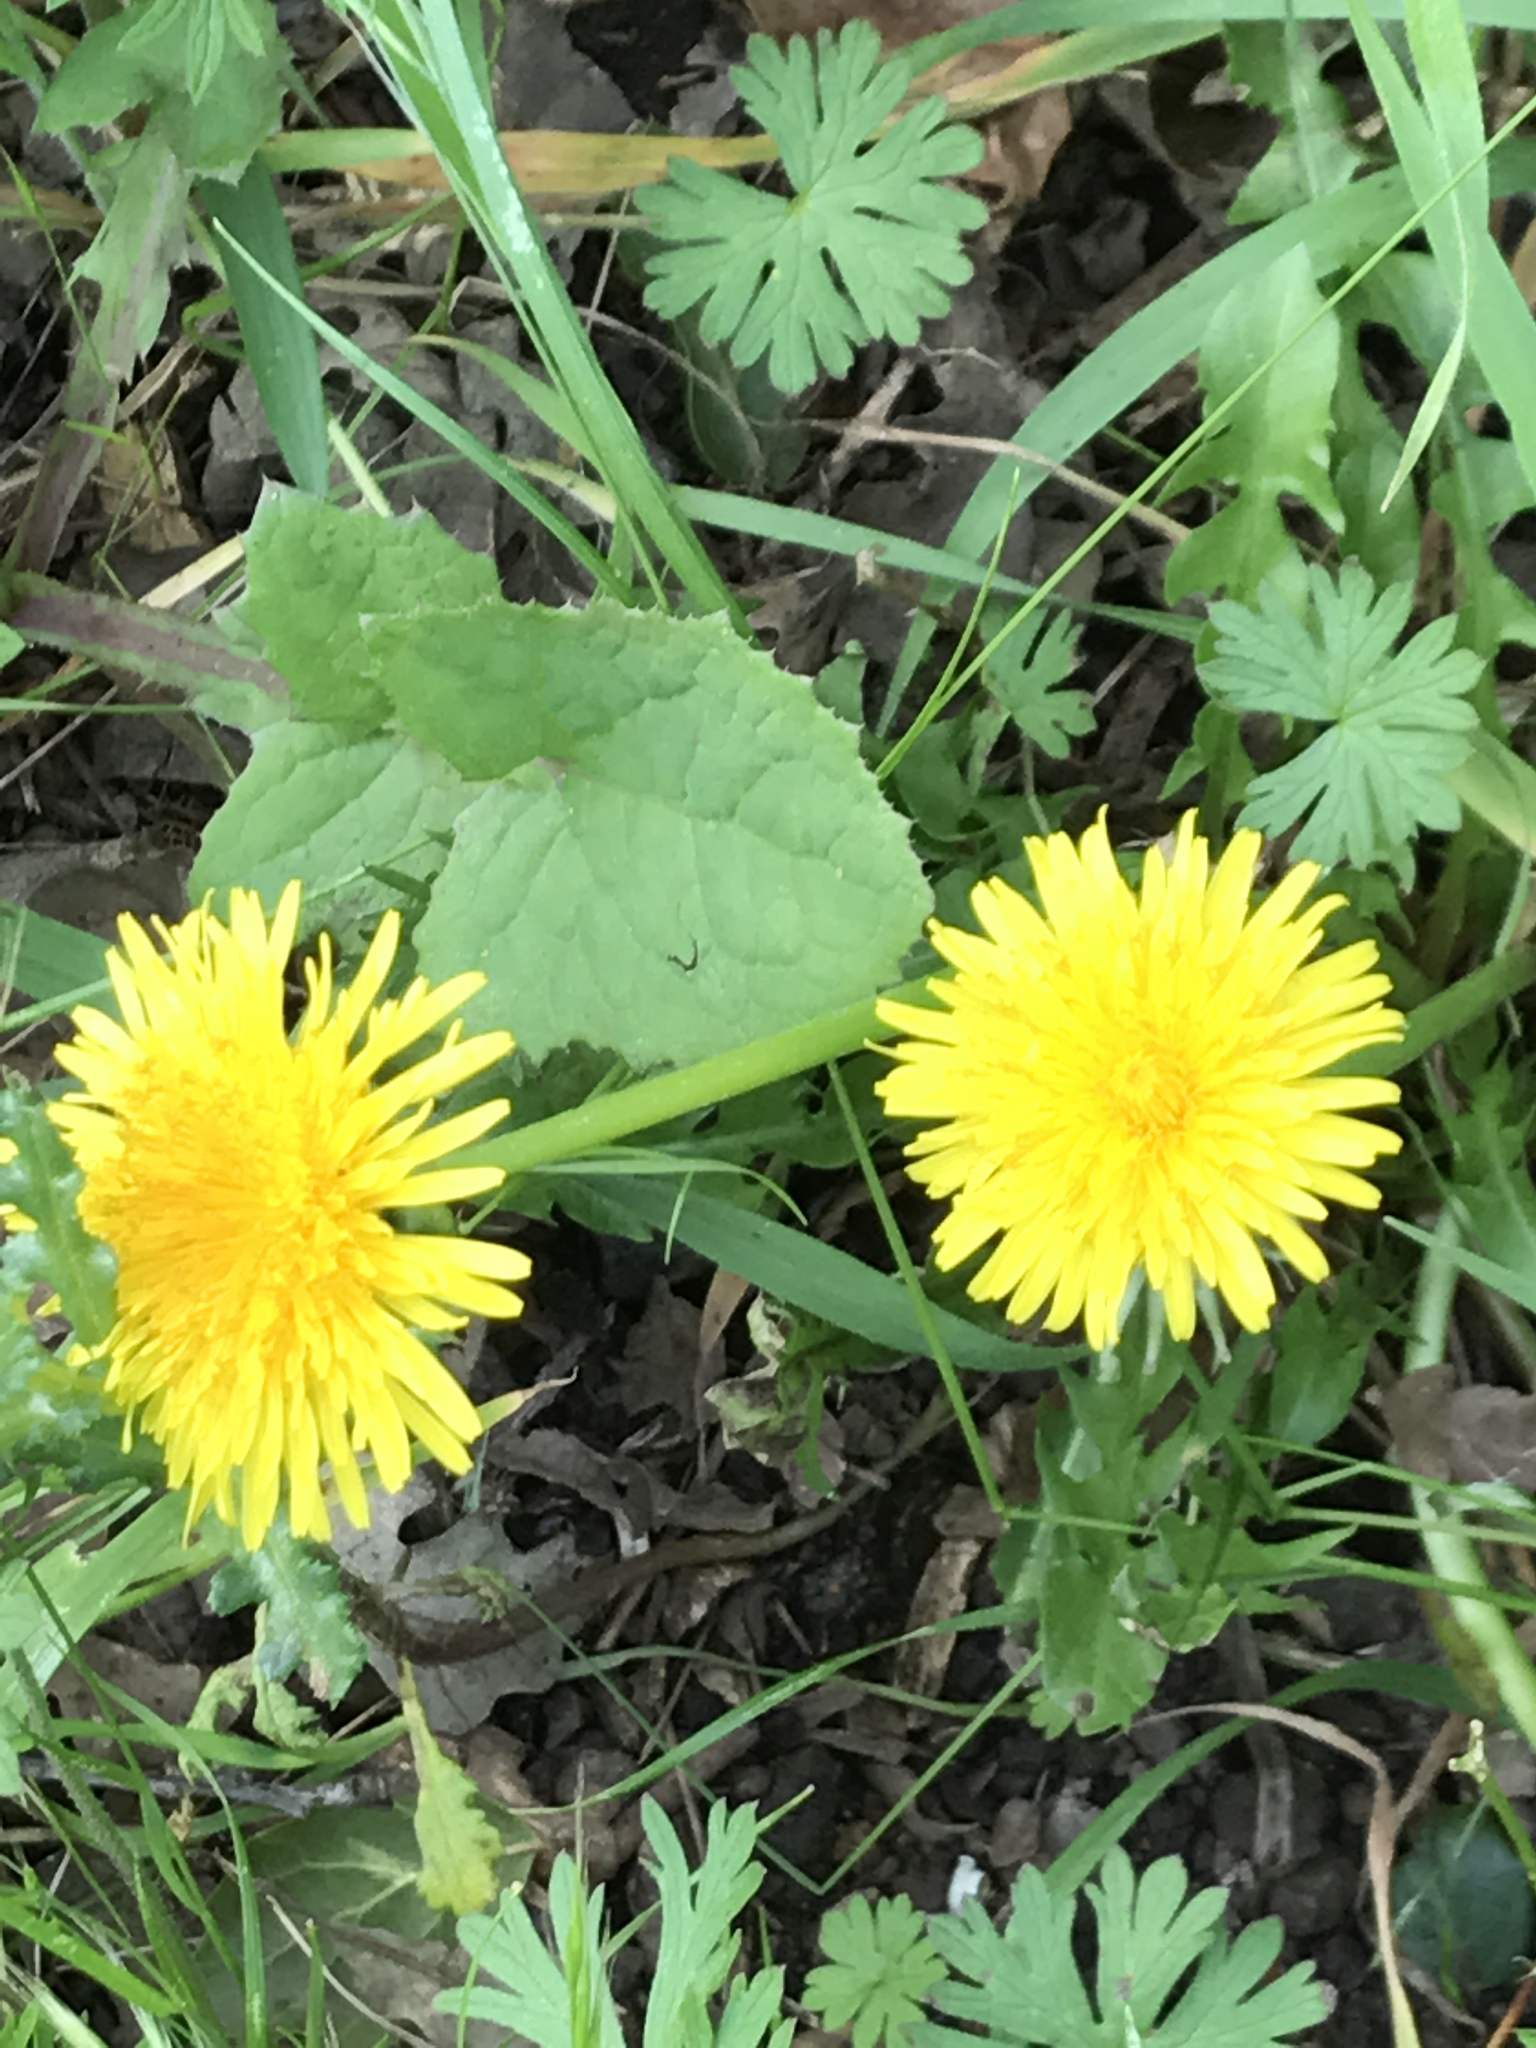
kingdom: Plantae
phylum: Tracheophyta
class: Magnoliopsida
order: Asterales
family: Asteraceae
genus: Taraxacum
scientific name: Taraxacum
